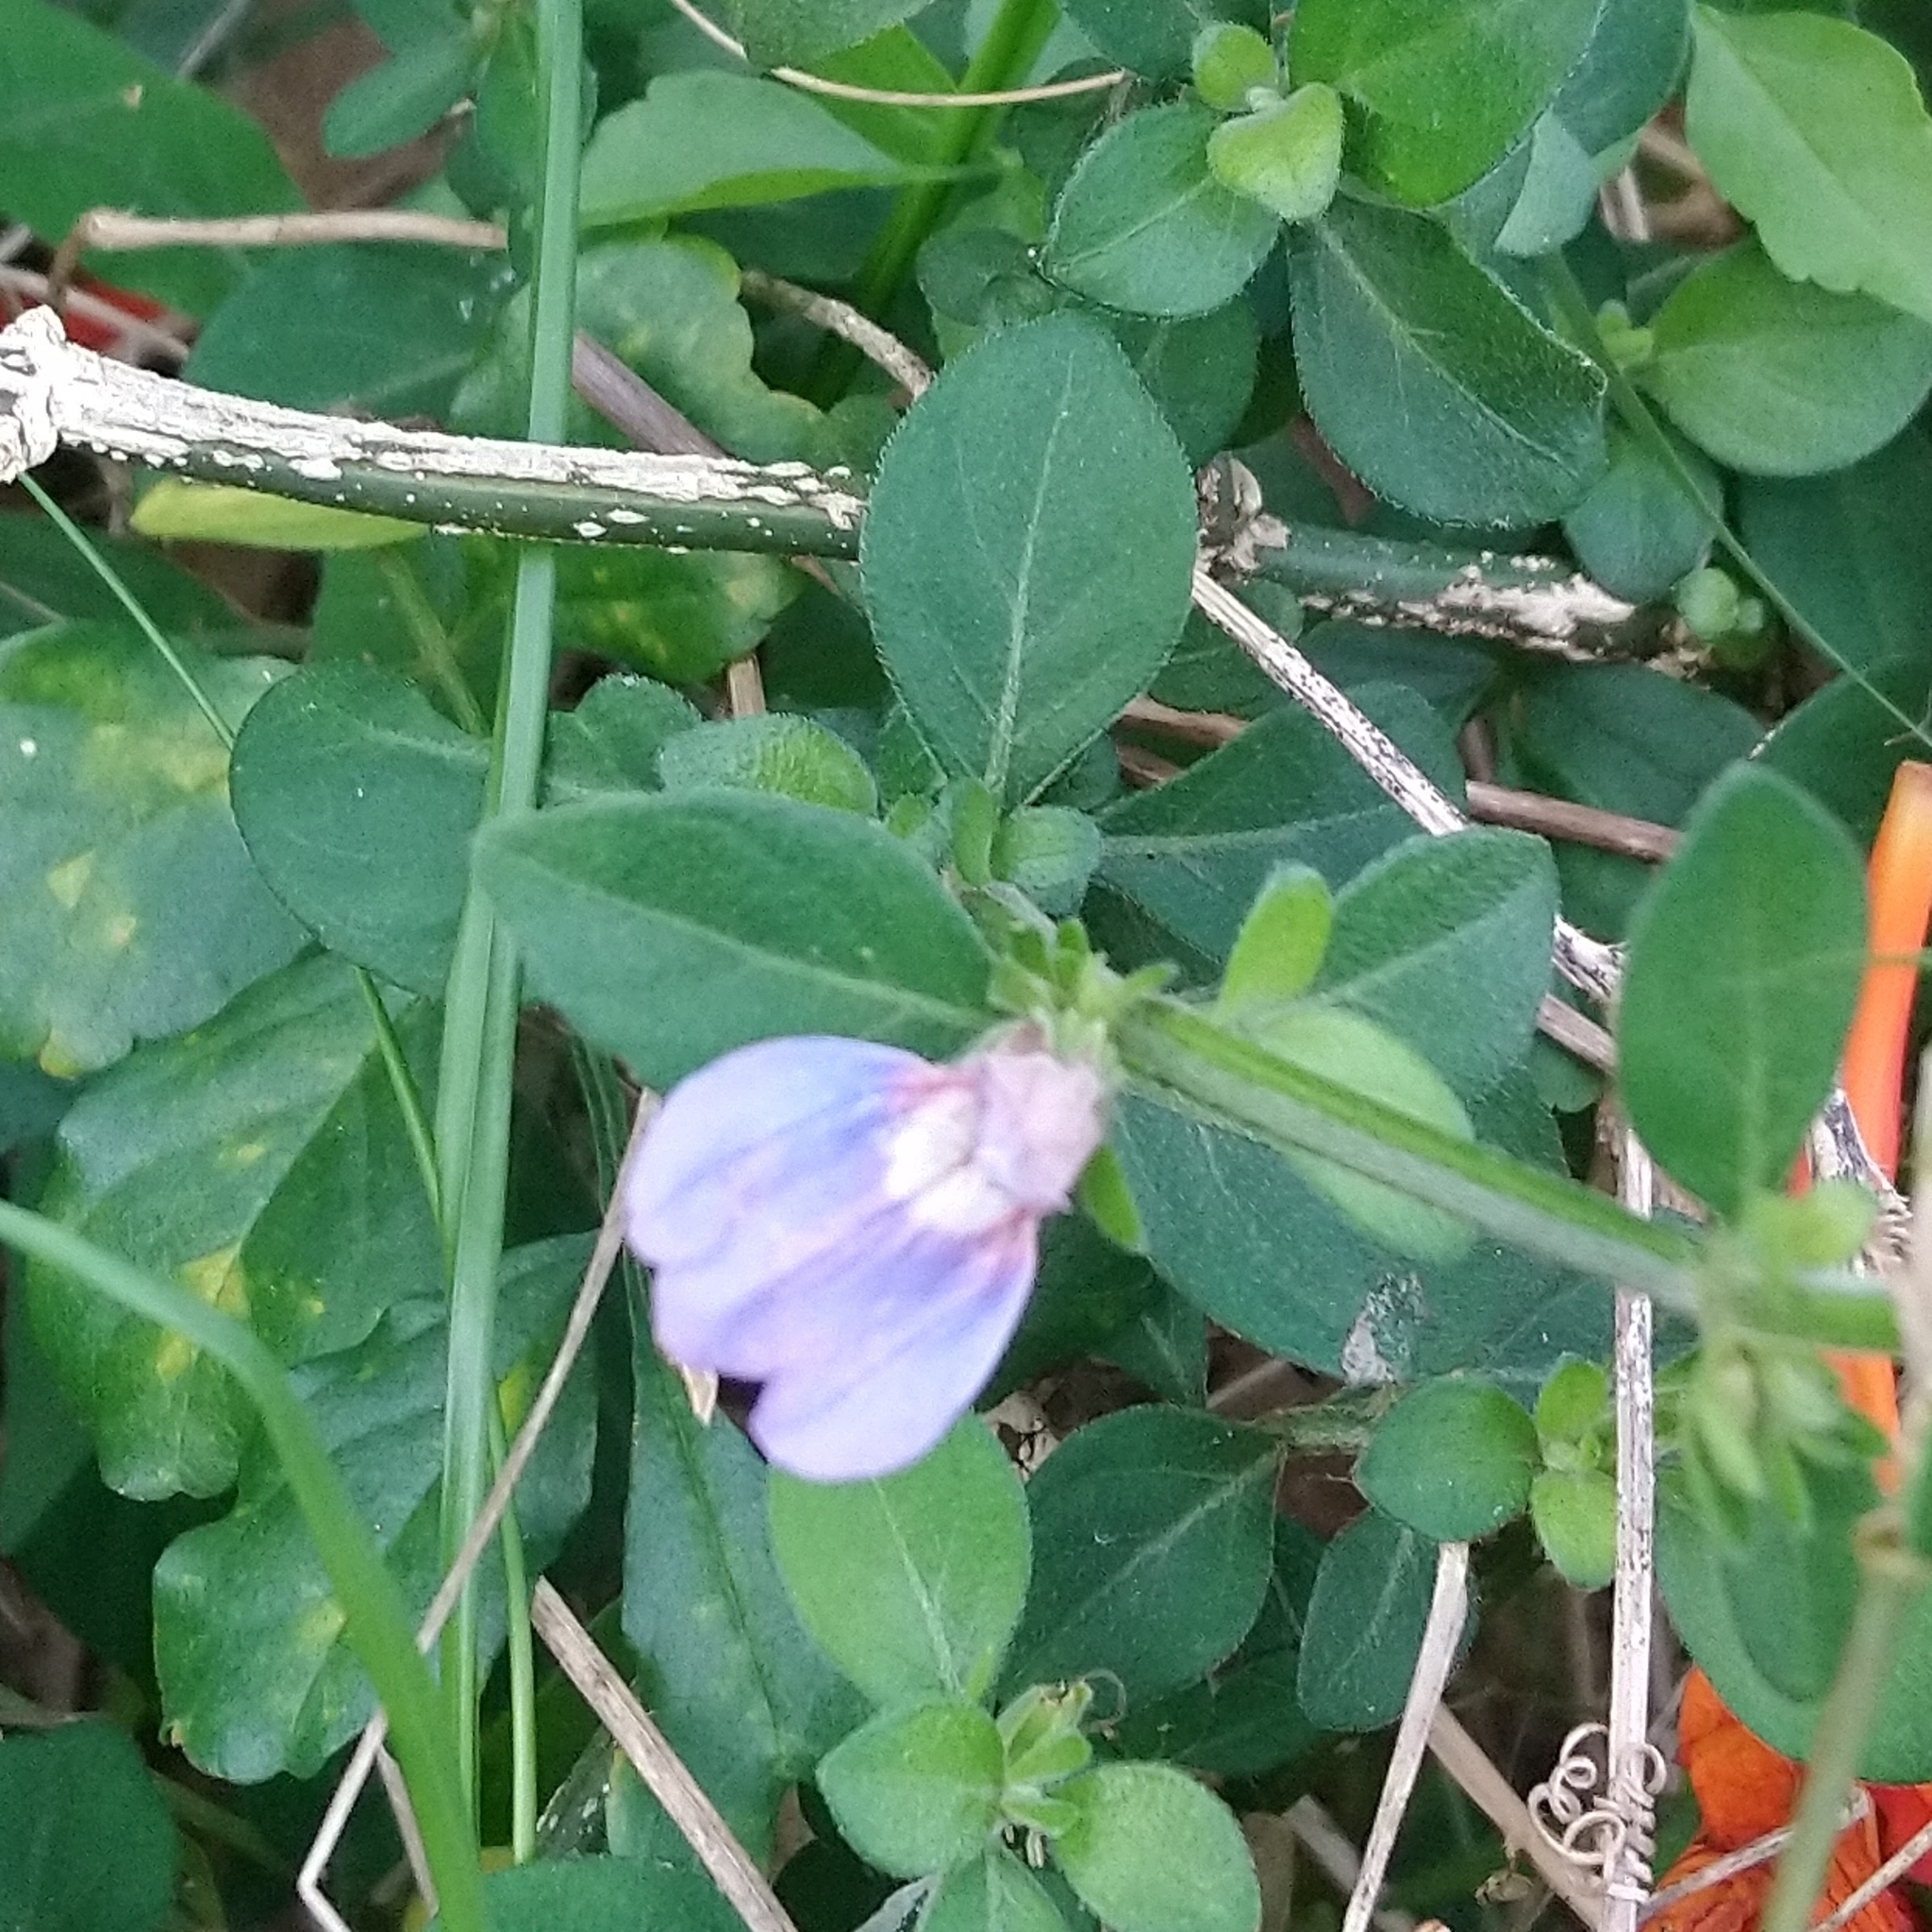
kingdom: Plantae
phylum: Tracheophyta
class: Magnoliopsida
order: Lamiales
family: Acanthaceae
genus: Justicia
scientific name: Justicia petiolaris
